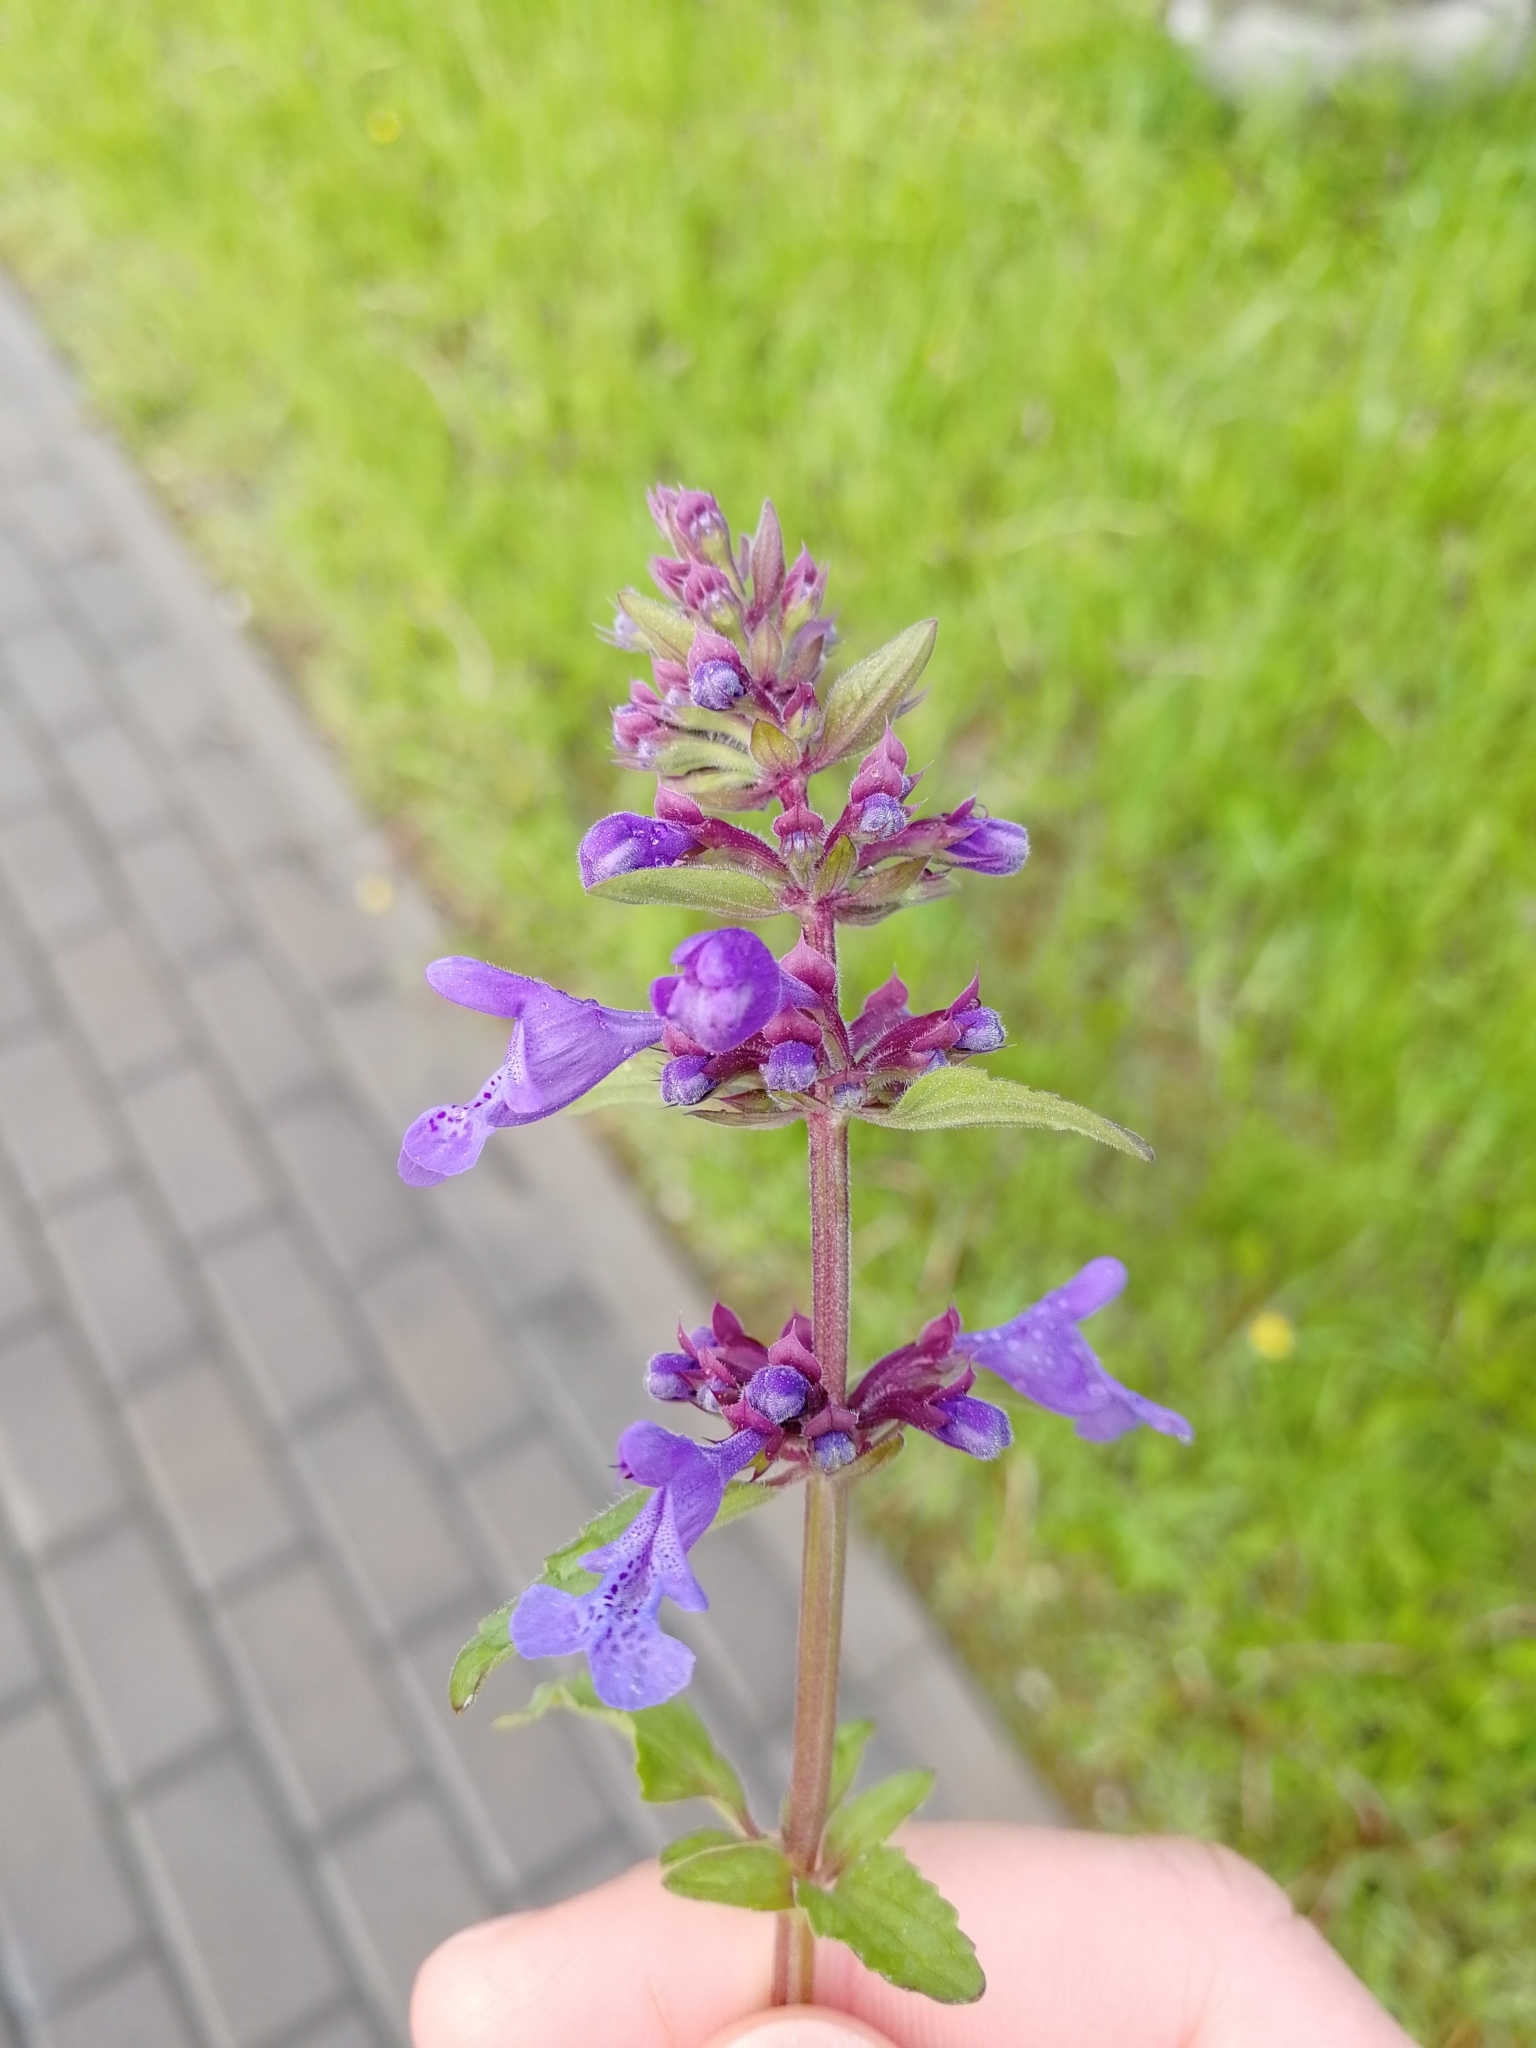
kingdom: Plantae
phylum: Tracheophyta
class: Magnoliopsida
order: Lamiales
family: Lamiaceae
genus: Dracocephalum
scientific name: Dracocephalum nutans
